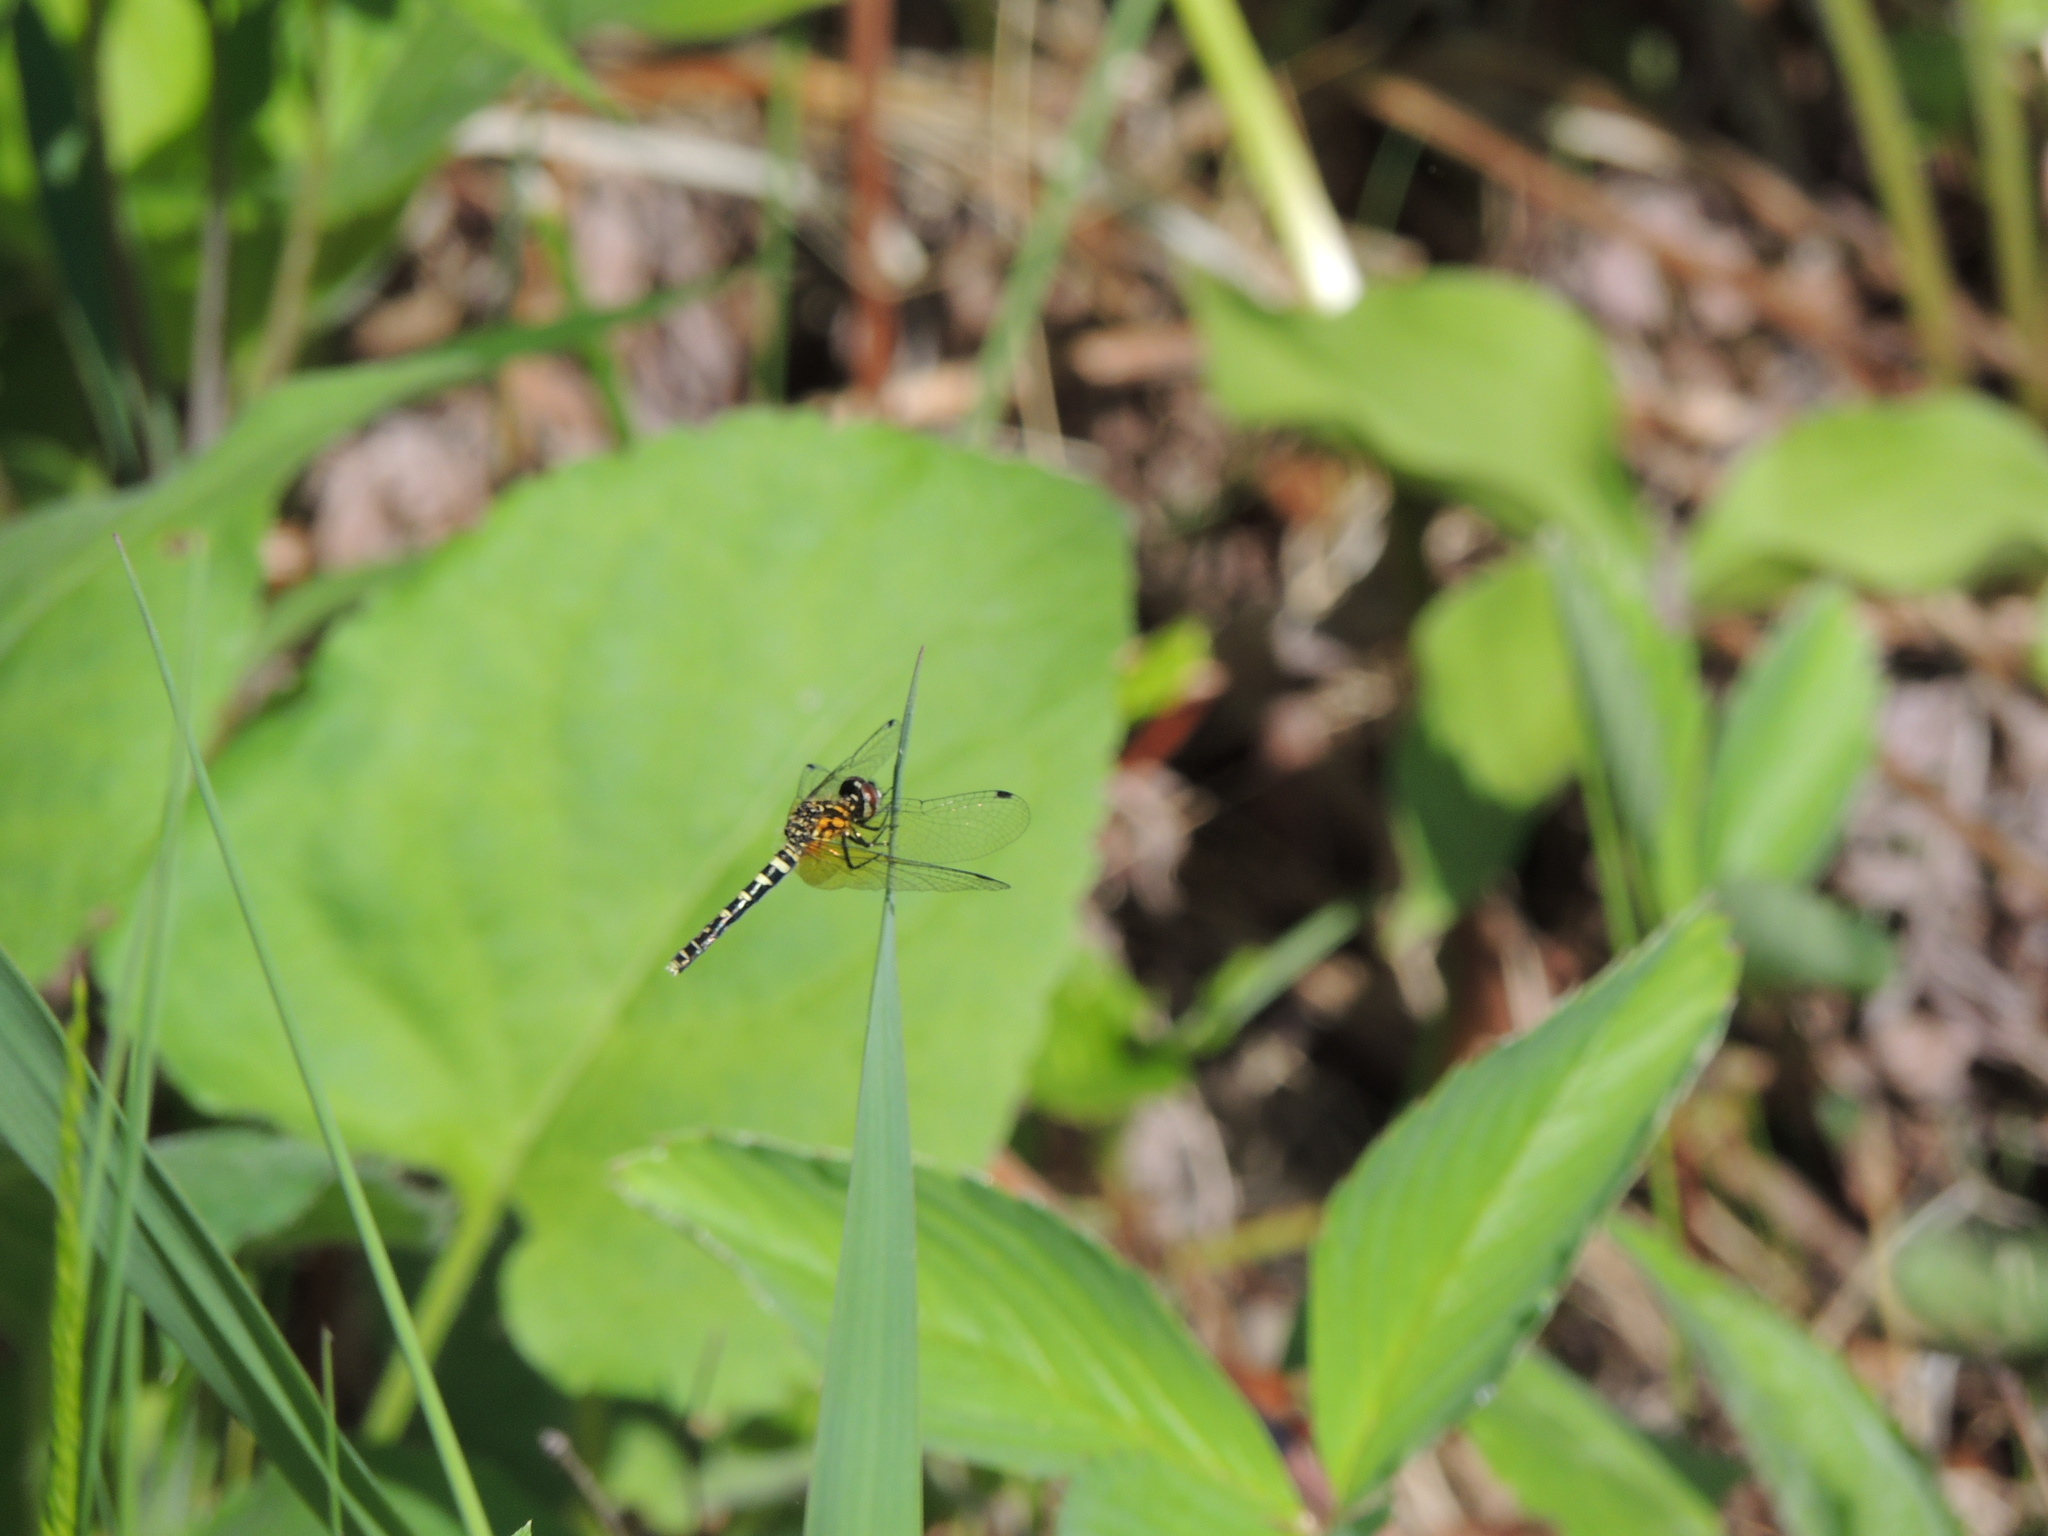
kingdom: Animalia
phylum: Arthropoda
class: Insecta
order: Odonata
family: Libellulidae
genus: Nannothemis
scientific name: Nannothemis bella
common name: Elfin skimmer
